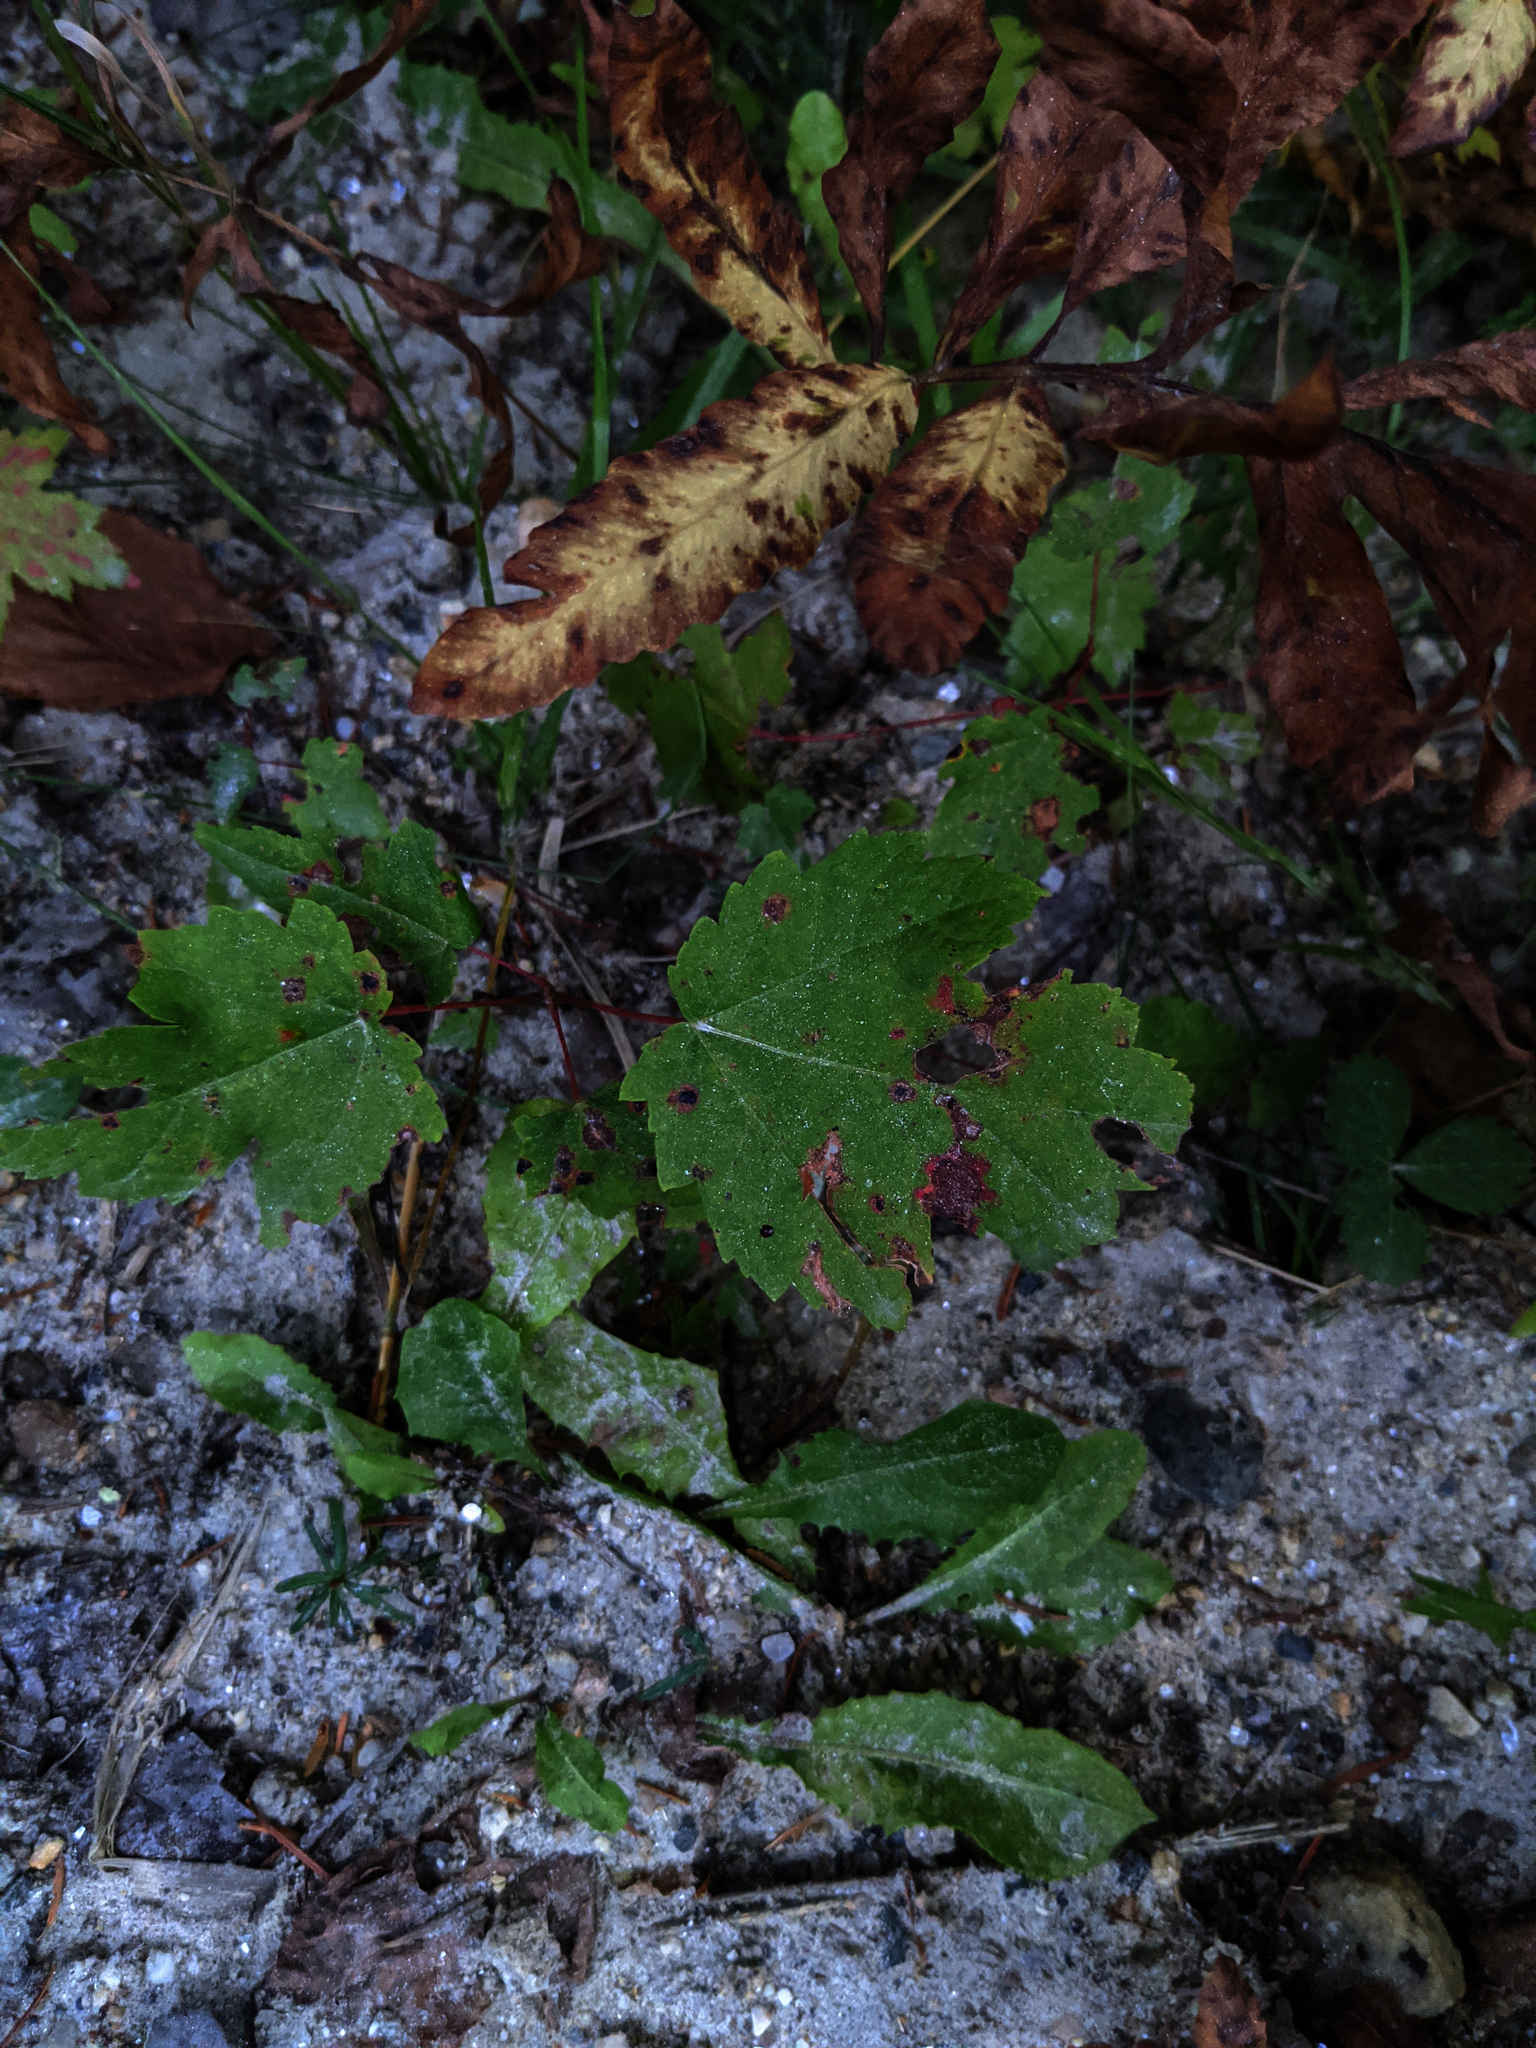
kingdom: Plantae
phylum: Tracheophyta
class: Magnoliopsida
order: Sapindales
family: Sapindaceae
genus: Acer
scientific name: Acer rubrum
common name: Red maple
